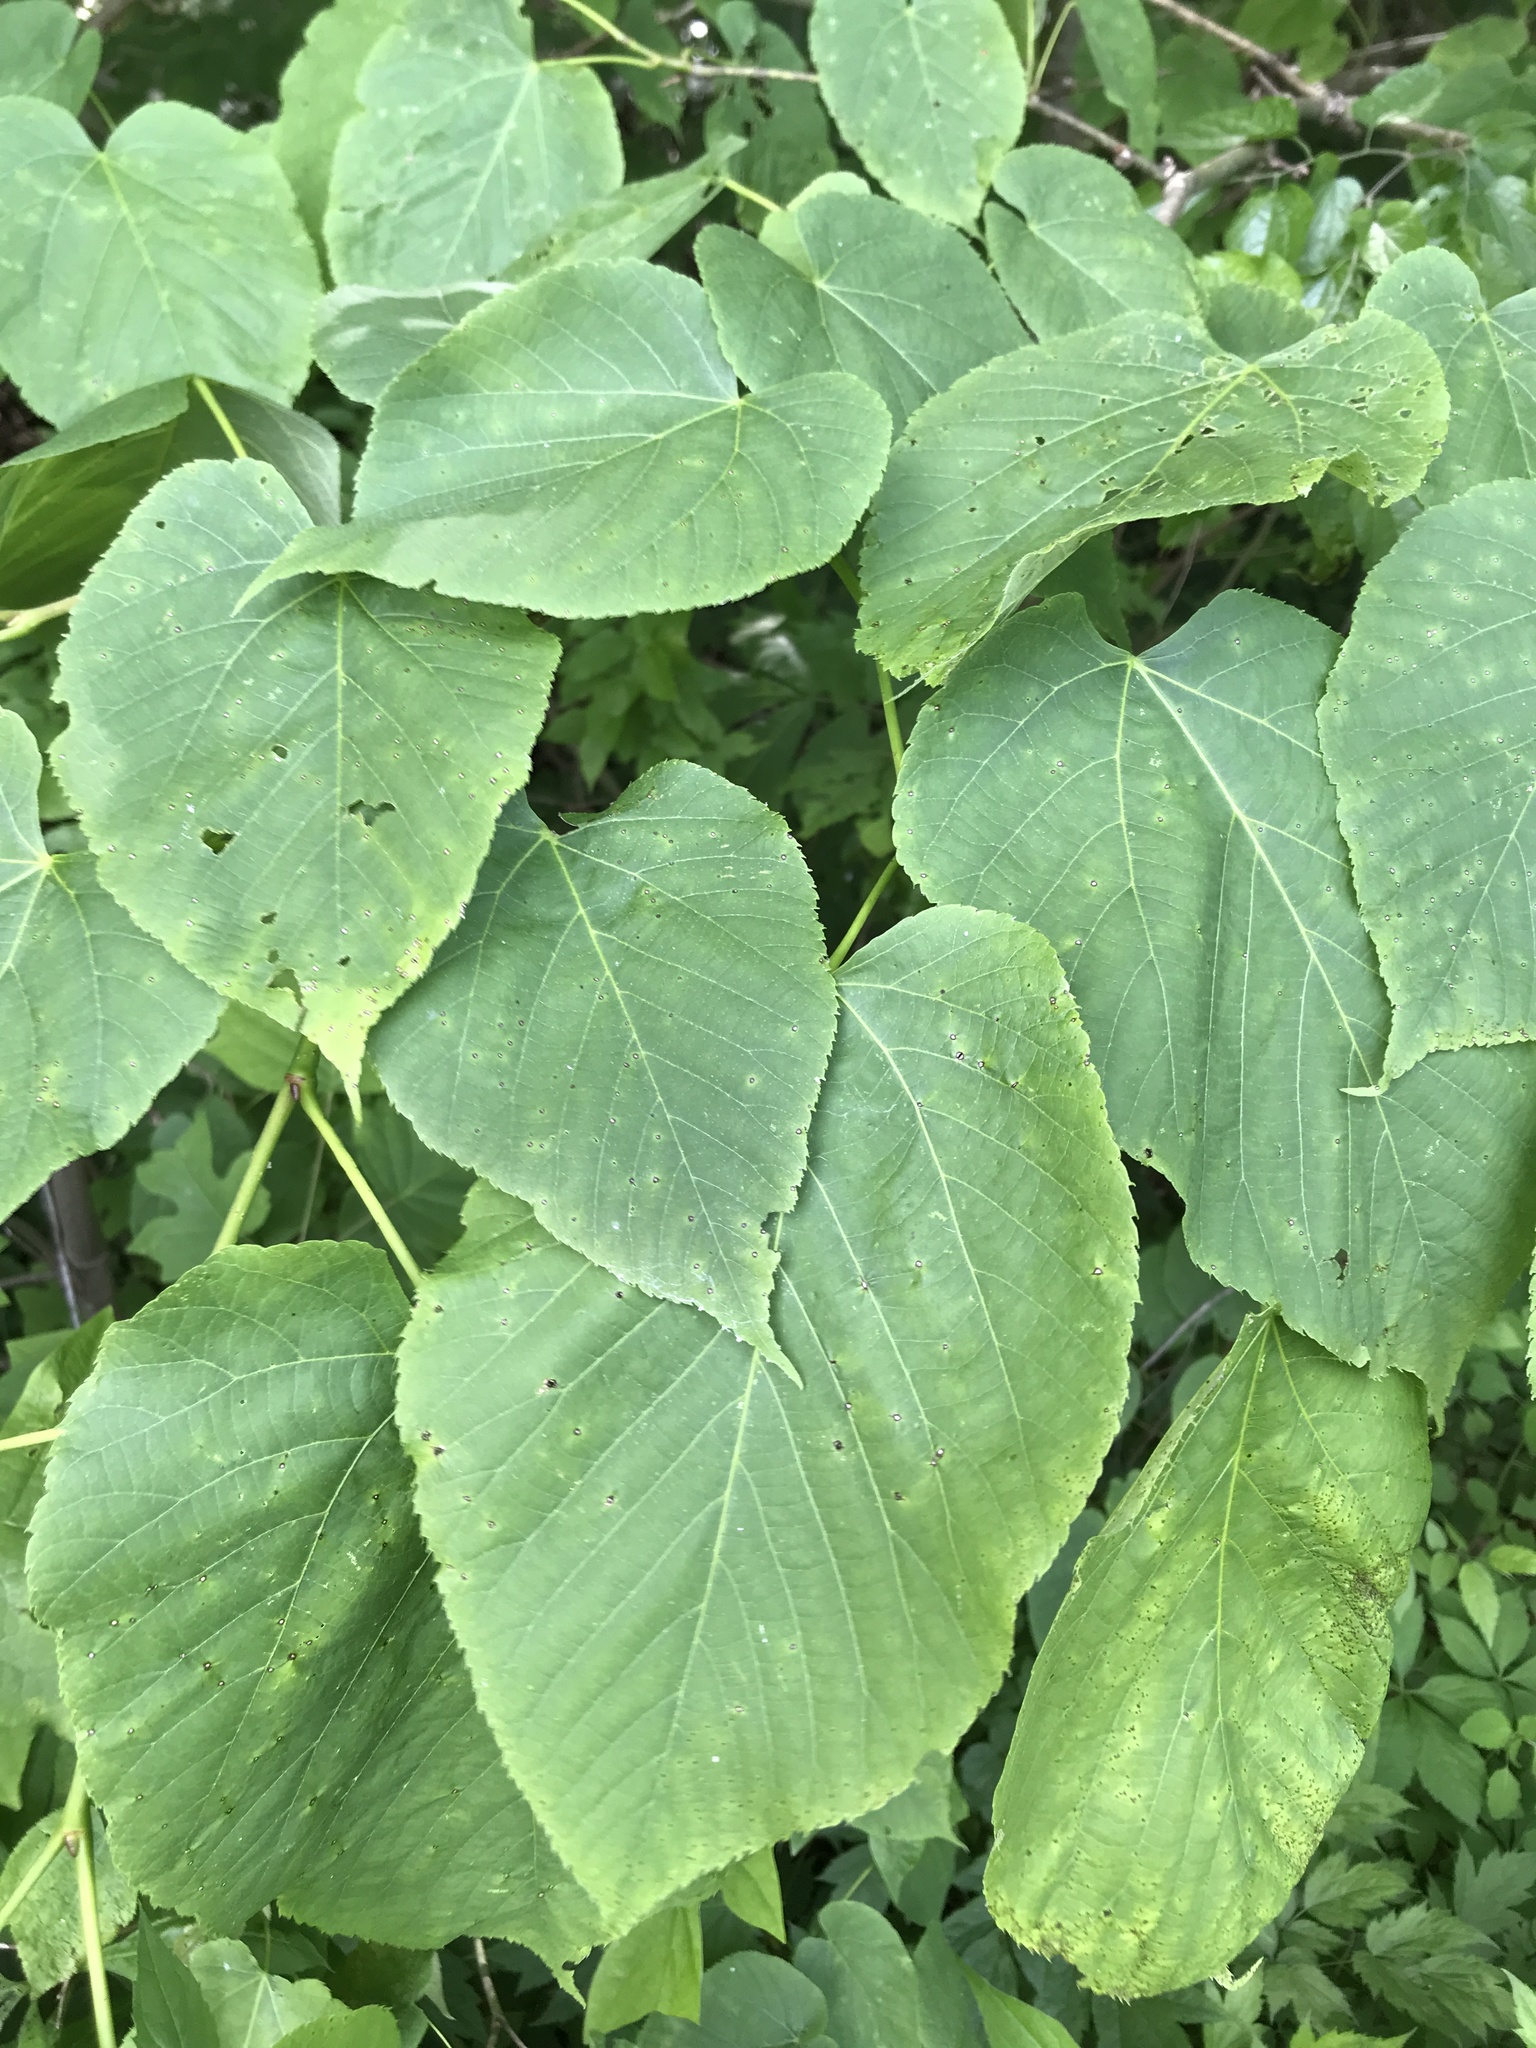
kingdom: Plantae
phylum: Tracheophyta
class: Magnoliopsida
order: Malvales
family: Malvaceae
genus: Tilia
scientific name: Tilia americana
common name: Basswood
